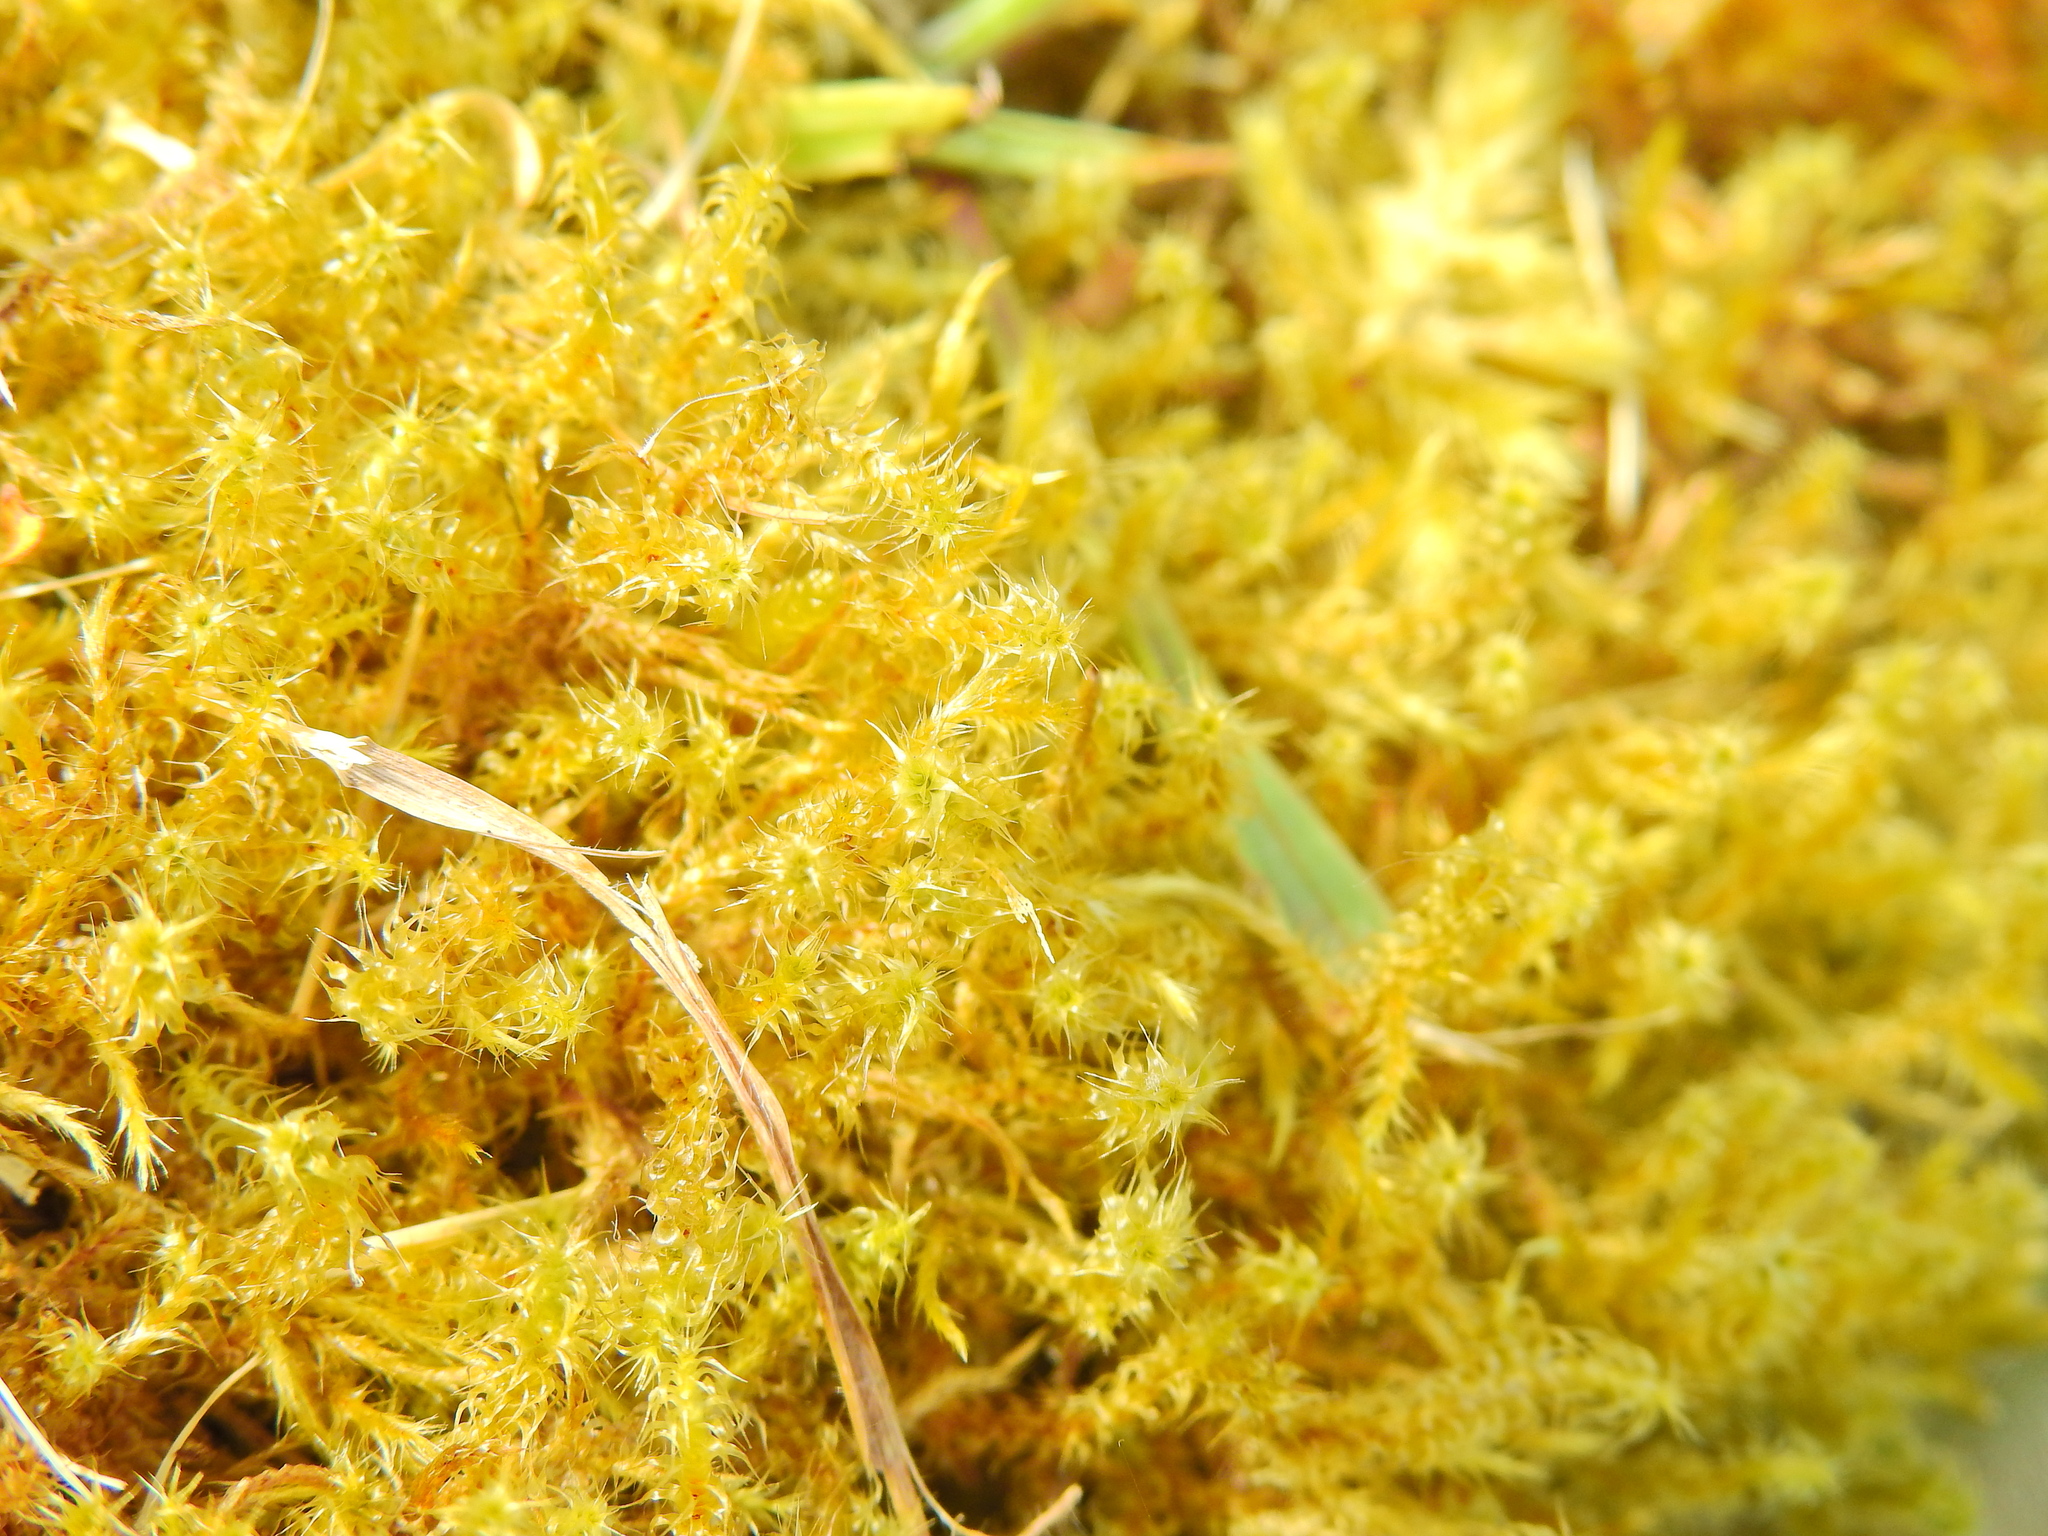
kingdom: Plantae
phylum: Bryophyta
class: Bryopsida
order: Hypnales
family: Hylocomiaceae
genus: Rhytidiadelphus
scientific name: Rhytidiadelphus squarrosus
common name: Springy turf-moss
